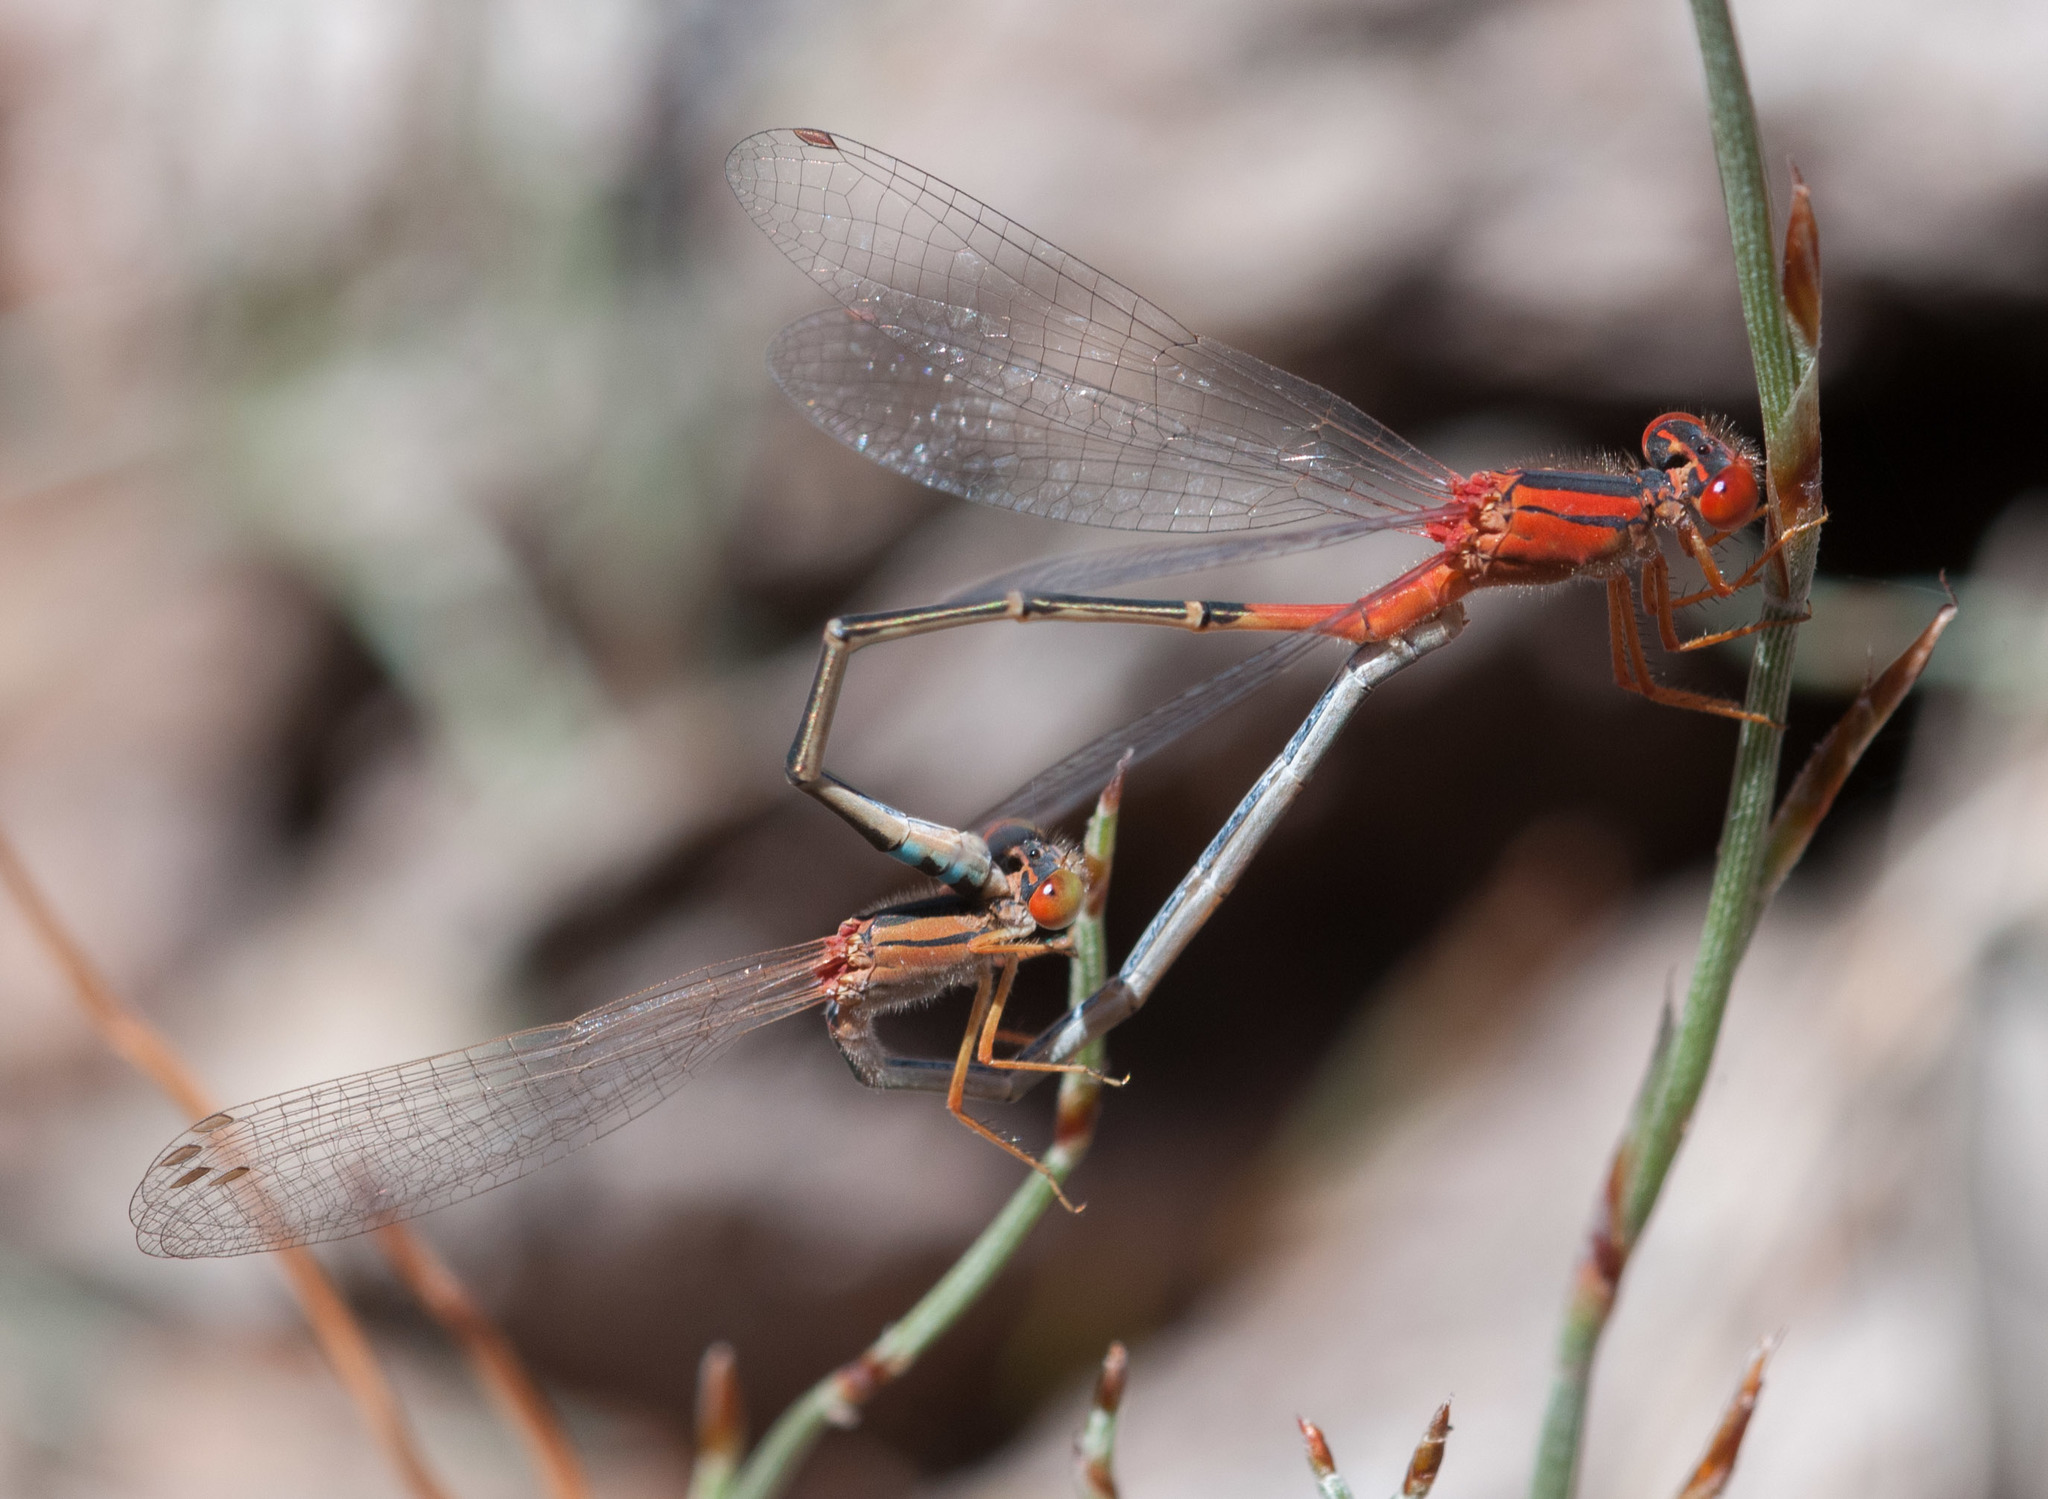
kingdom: Animalia
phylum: Arthropoda
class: Insecta
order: Odonata
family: Coenagrionidae
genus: Xanthagrion
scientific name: Xanthagrion erythroneurum
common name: Red and blue damsel
